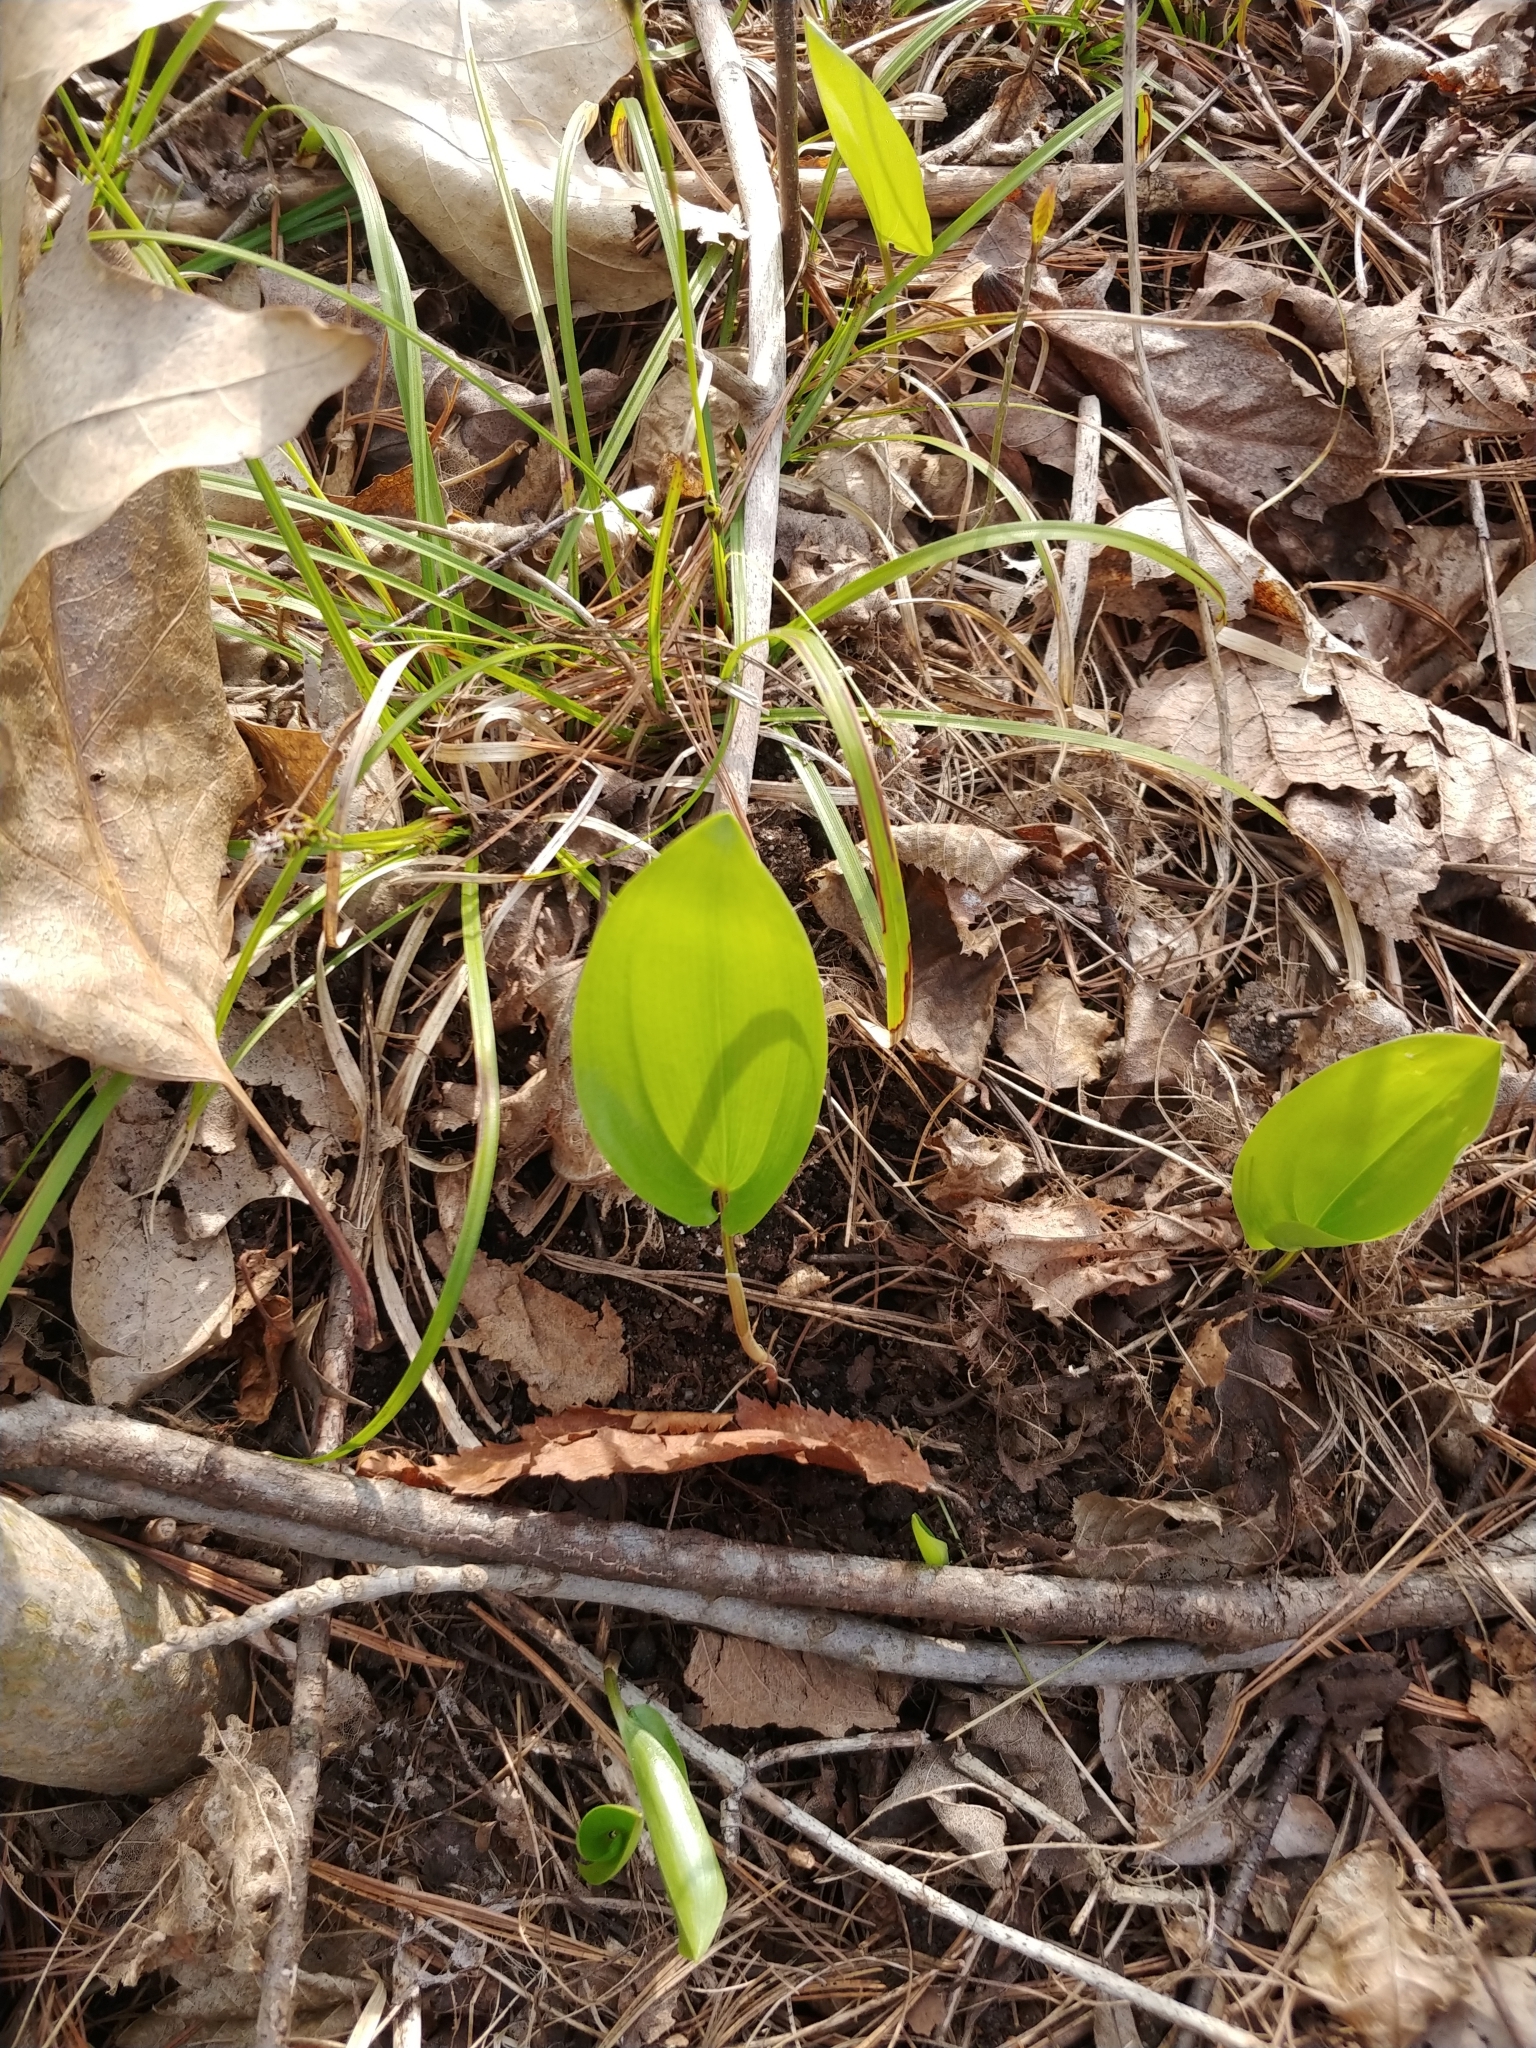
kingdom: Plantae
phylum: Tracheophyta
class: Liliopsida
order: Asparagales
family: Asparagaceae
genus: Maianthemum
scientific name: Maianthemum canadense
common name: False lily-of-the-valley
